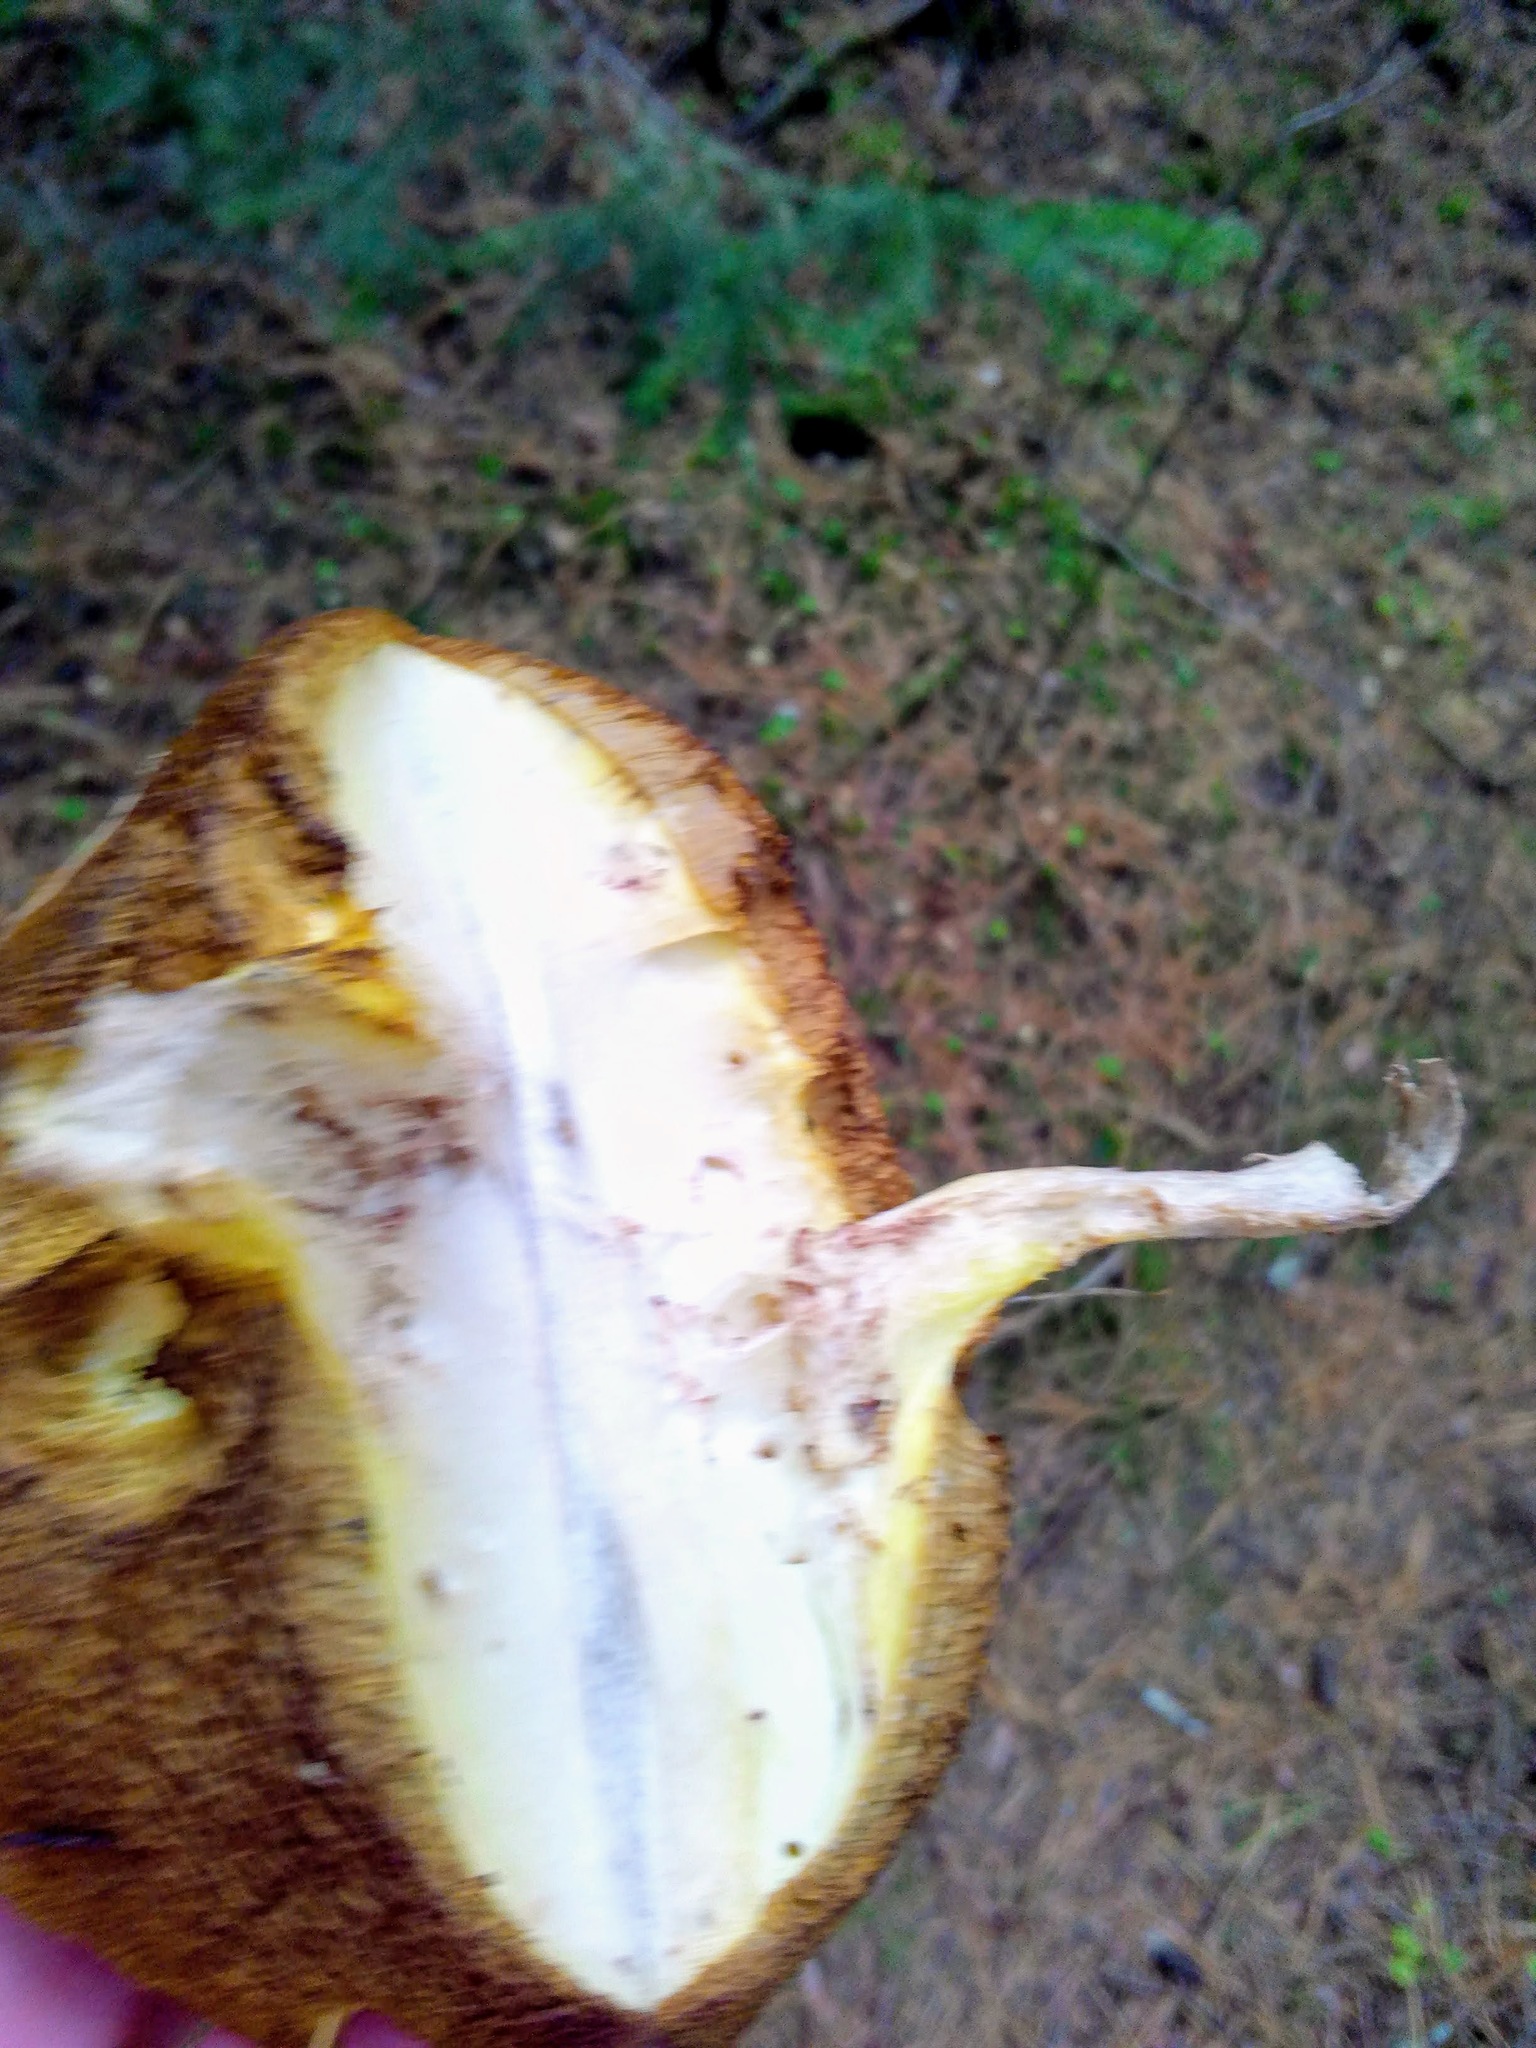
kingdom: Fungi
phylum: Basidiomycota
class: Agaricomycetes
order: Boletales
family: Suillaceae
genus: Suillus
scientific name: Suillus placidus
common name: Slippery white bolete
